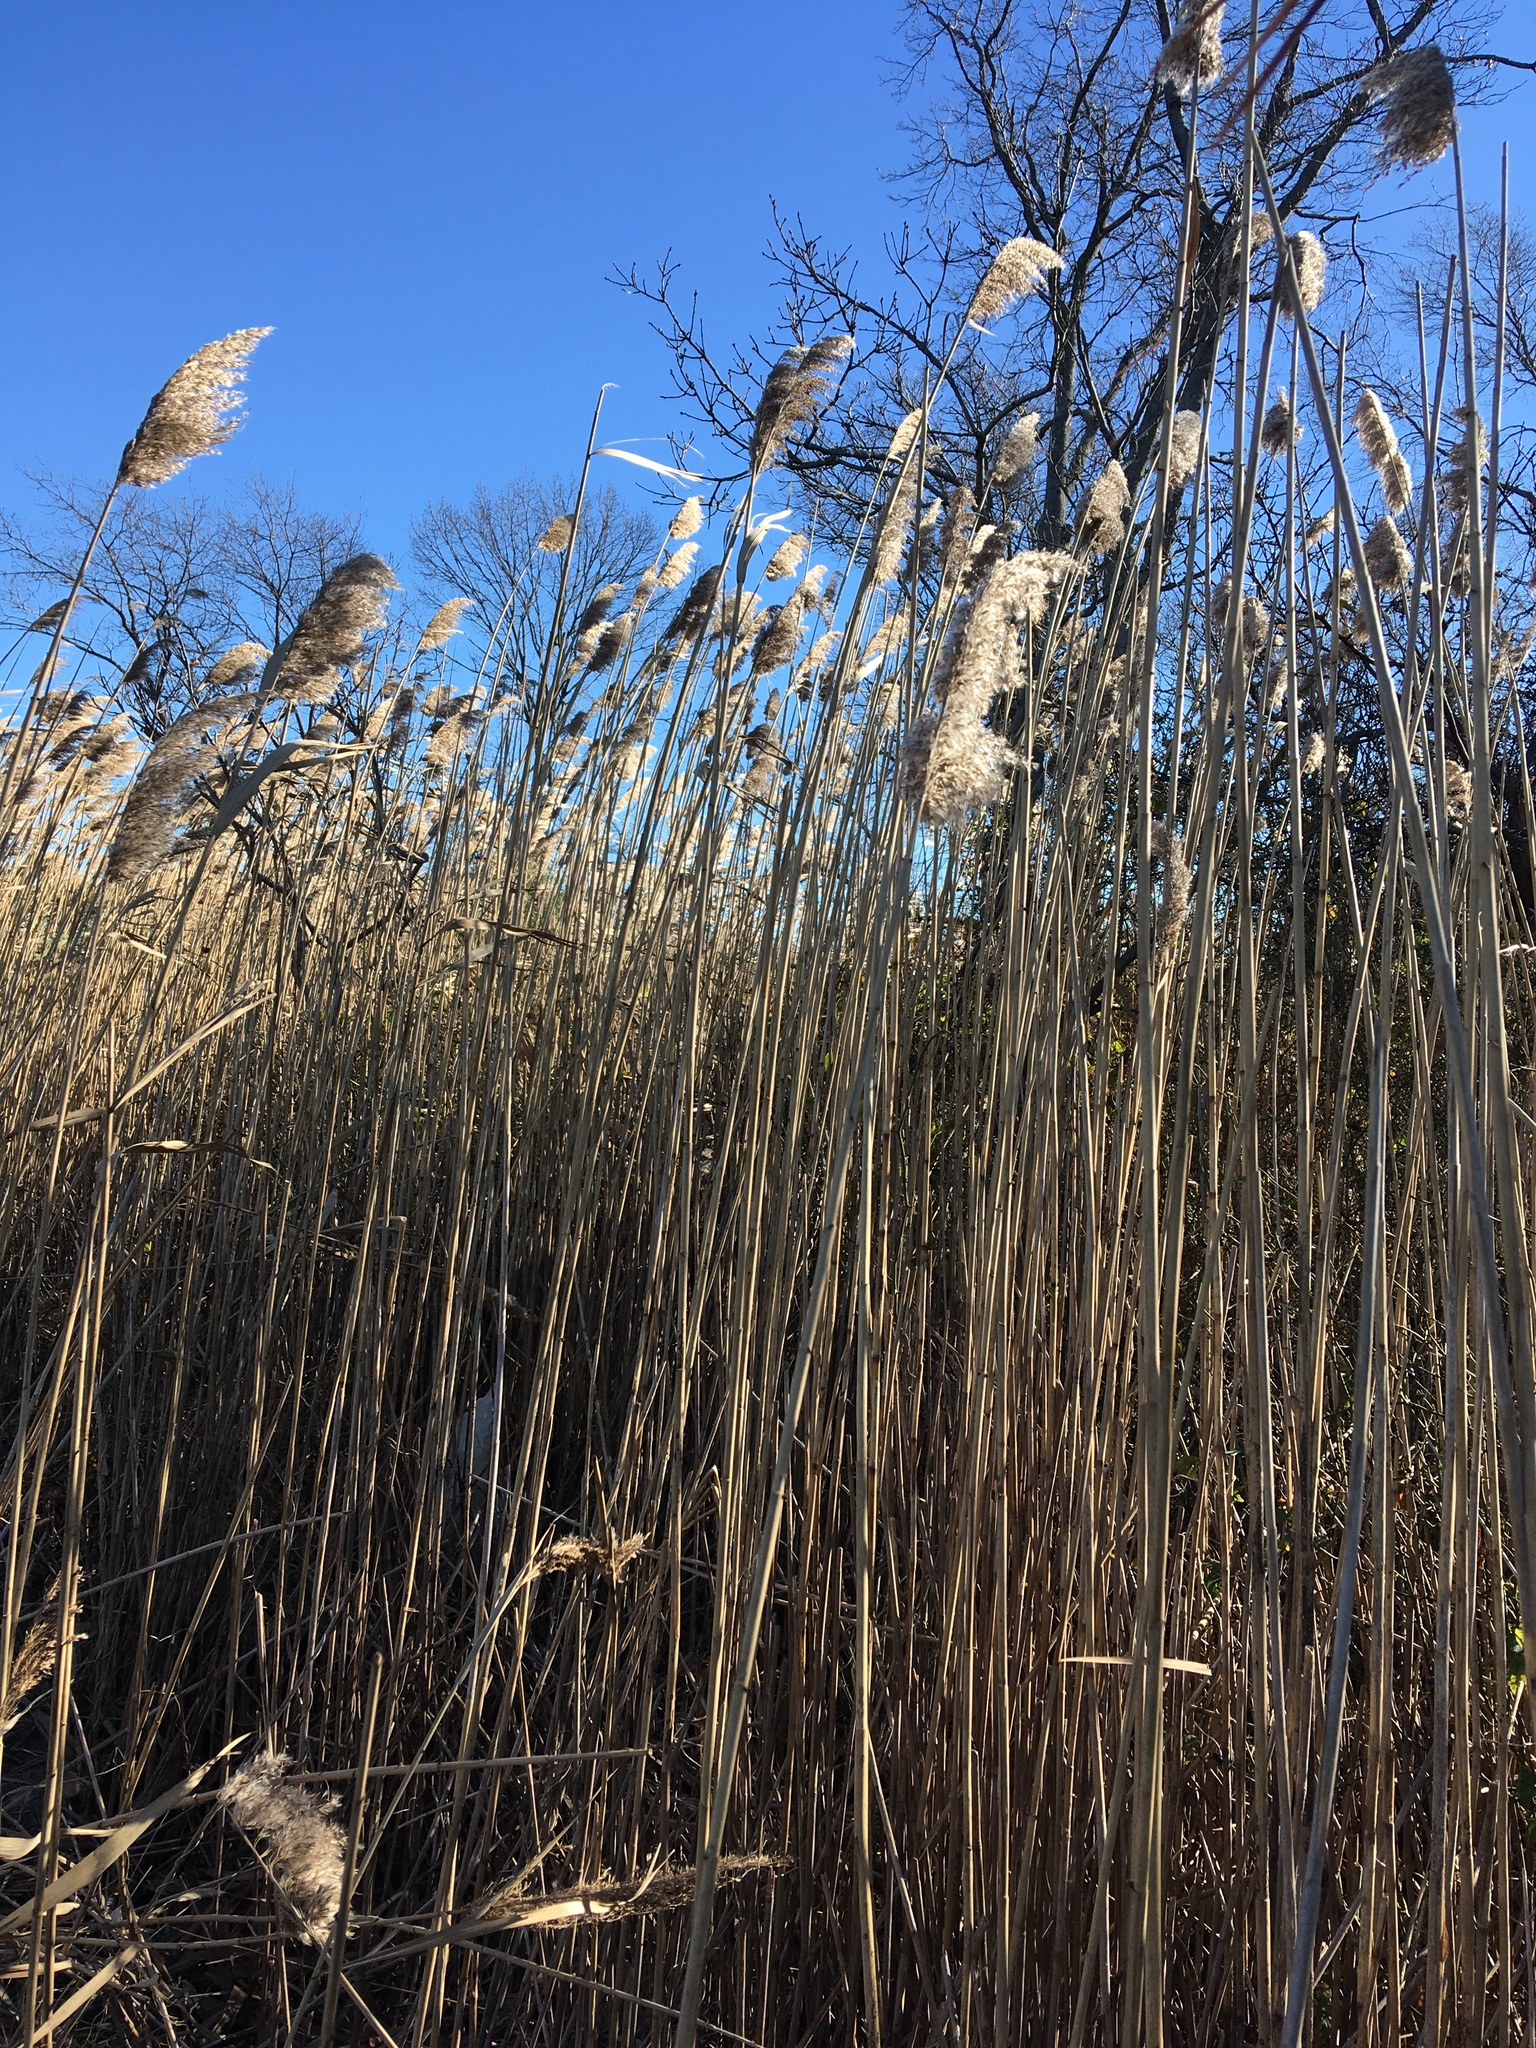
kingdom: Plantae
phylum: Tracheophyta
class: Liliopsida
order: Poales
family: Poaceae
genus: Phragmites
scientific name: Phragmites australis
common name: Common reed
